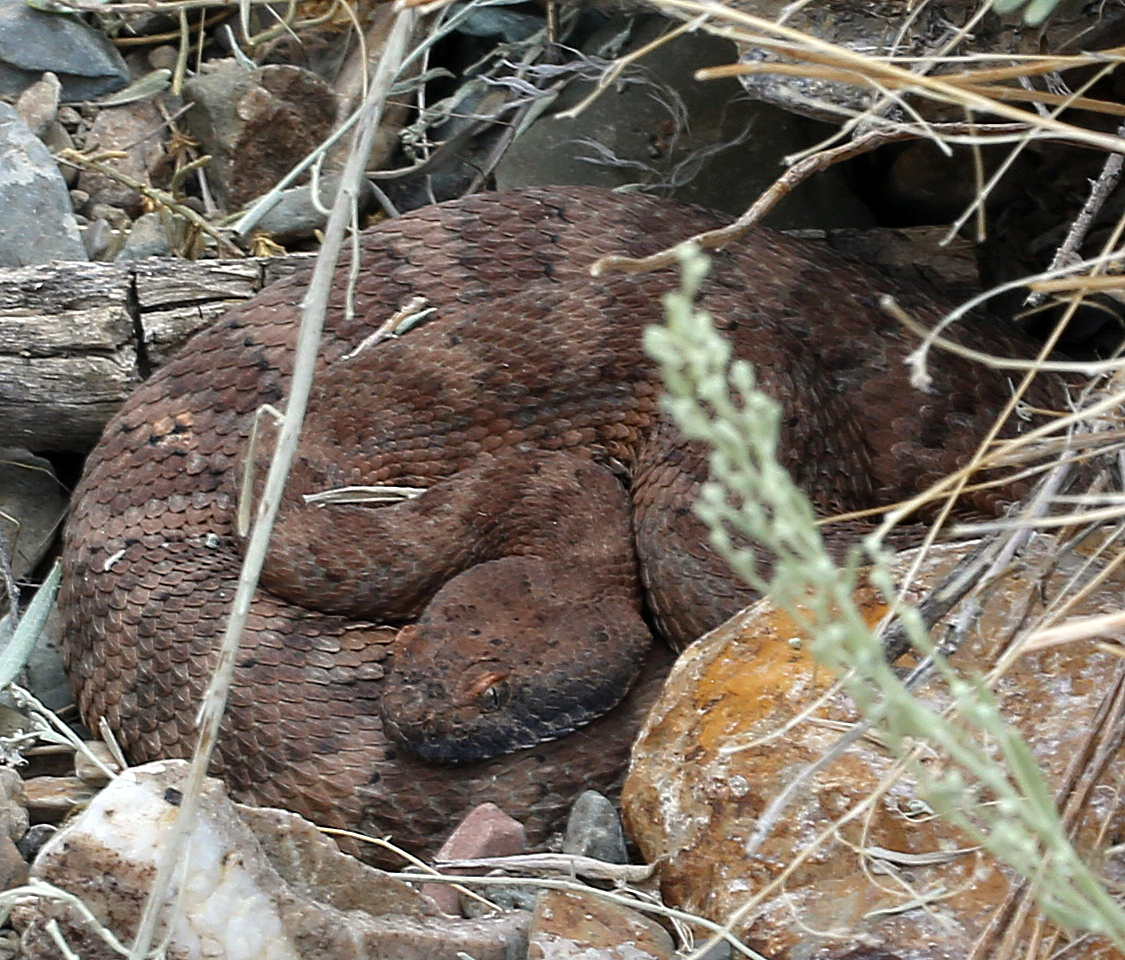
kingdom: Animalia
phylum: Chordata
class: Squamata
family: Viperidae
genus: Crotalus
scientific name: Crotalus stephensi
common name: Panamint rattlesnake
